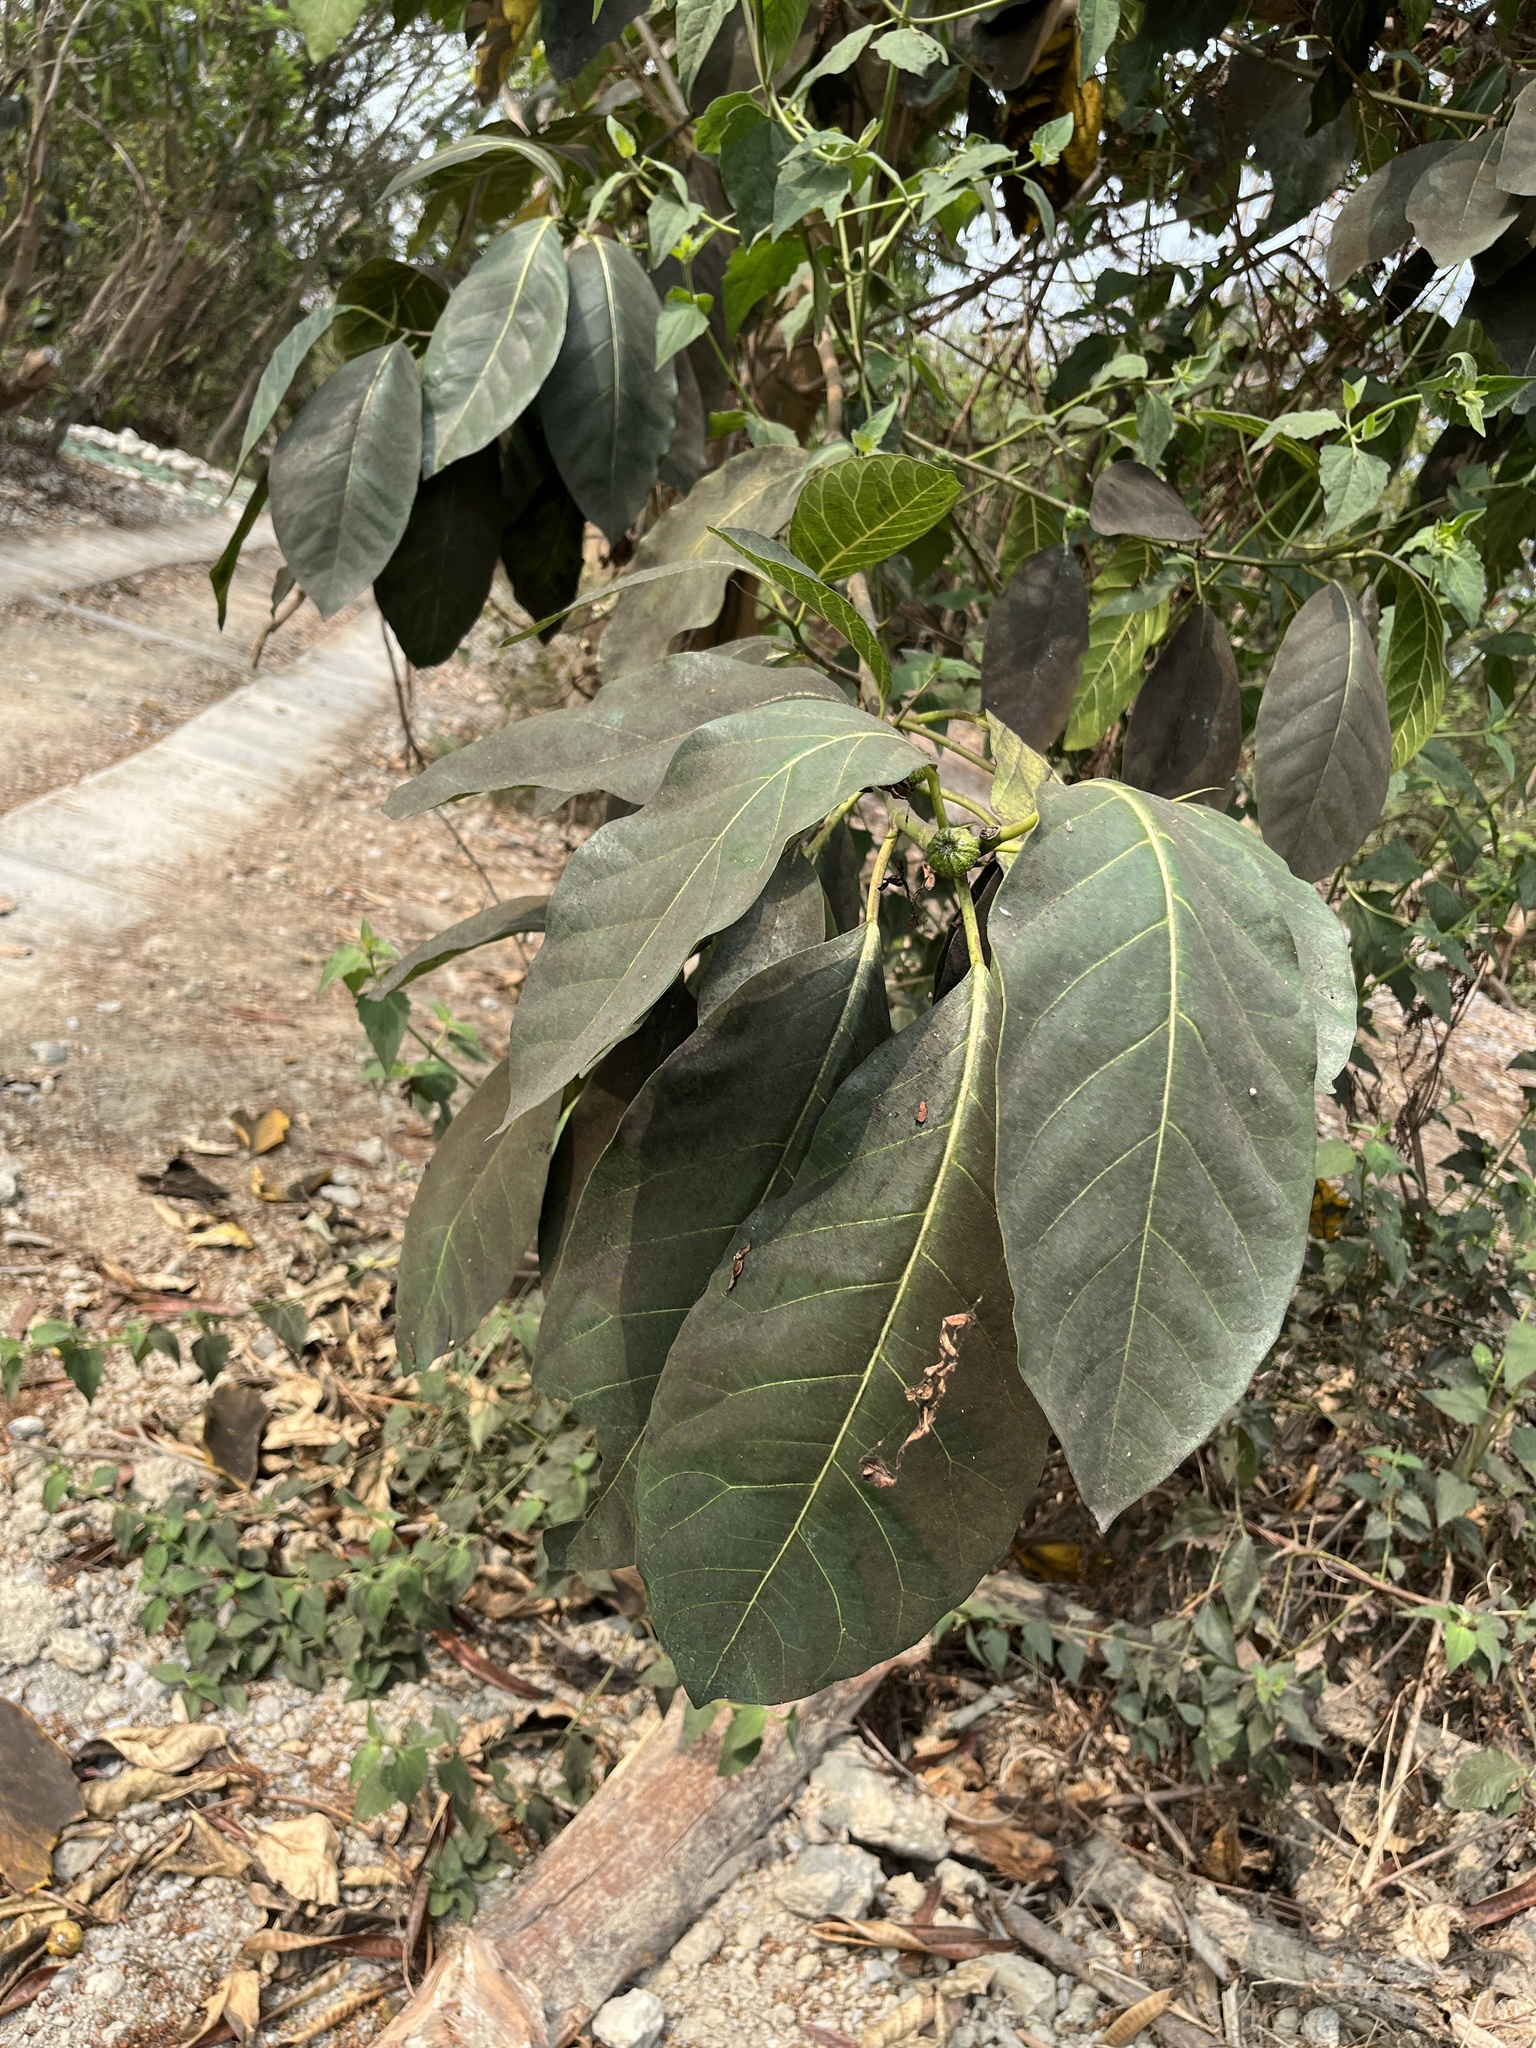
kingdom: Plantae
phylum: Tracheophyta
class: Magnoliopsida
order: Rosales
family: Moraceae
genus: Ficus
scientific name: Ficus septica
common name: Septic fig
